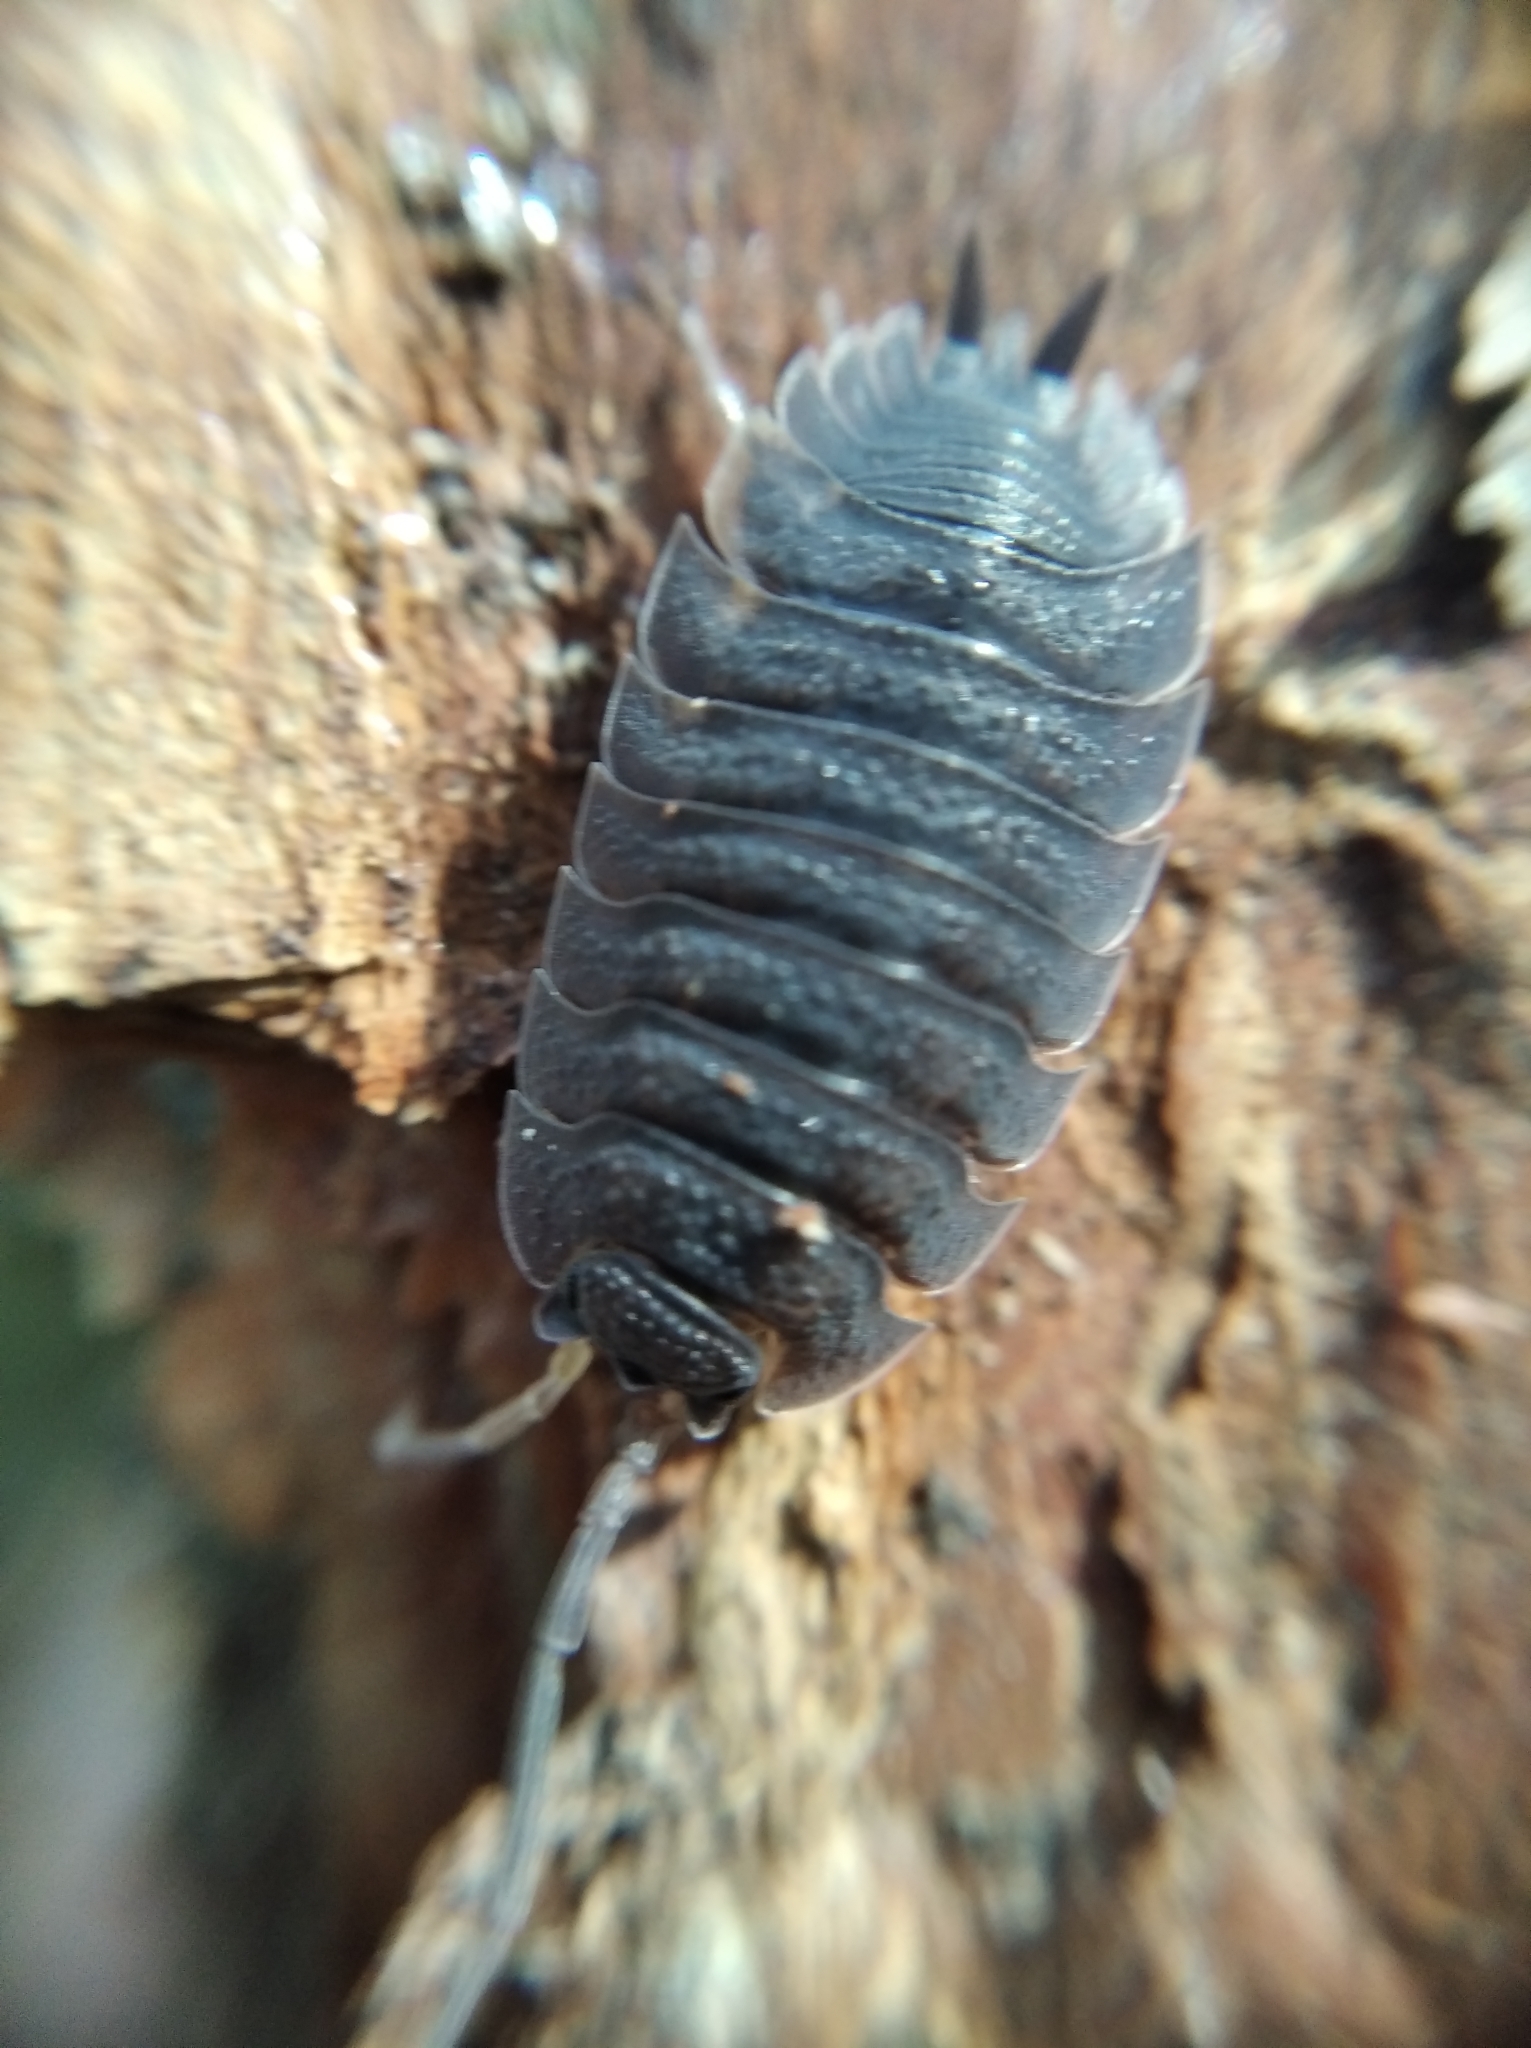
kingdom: Animalia
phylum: Arthropoda
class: Malacostraca
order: Isopoda
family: Porcellionidae
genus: Porcellio
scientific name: Porcellio scaber
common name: Common rough woodlouse
